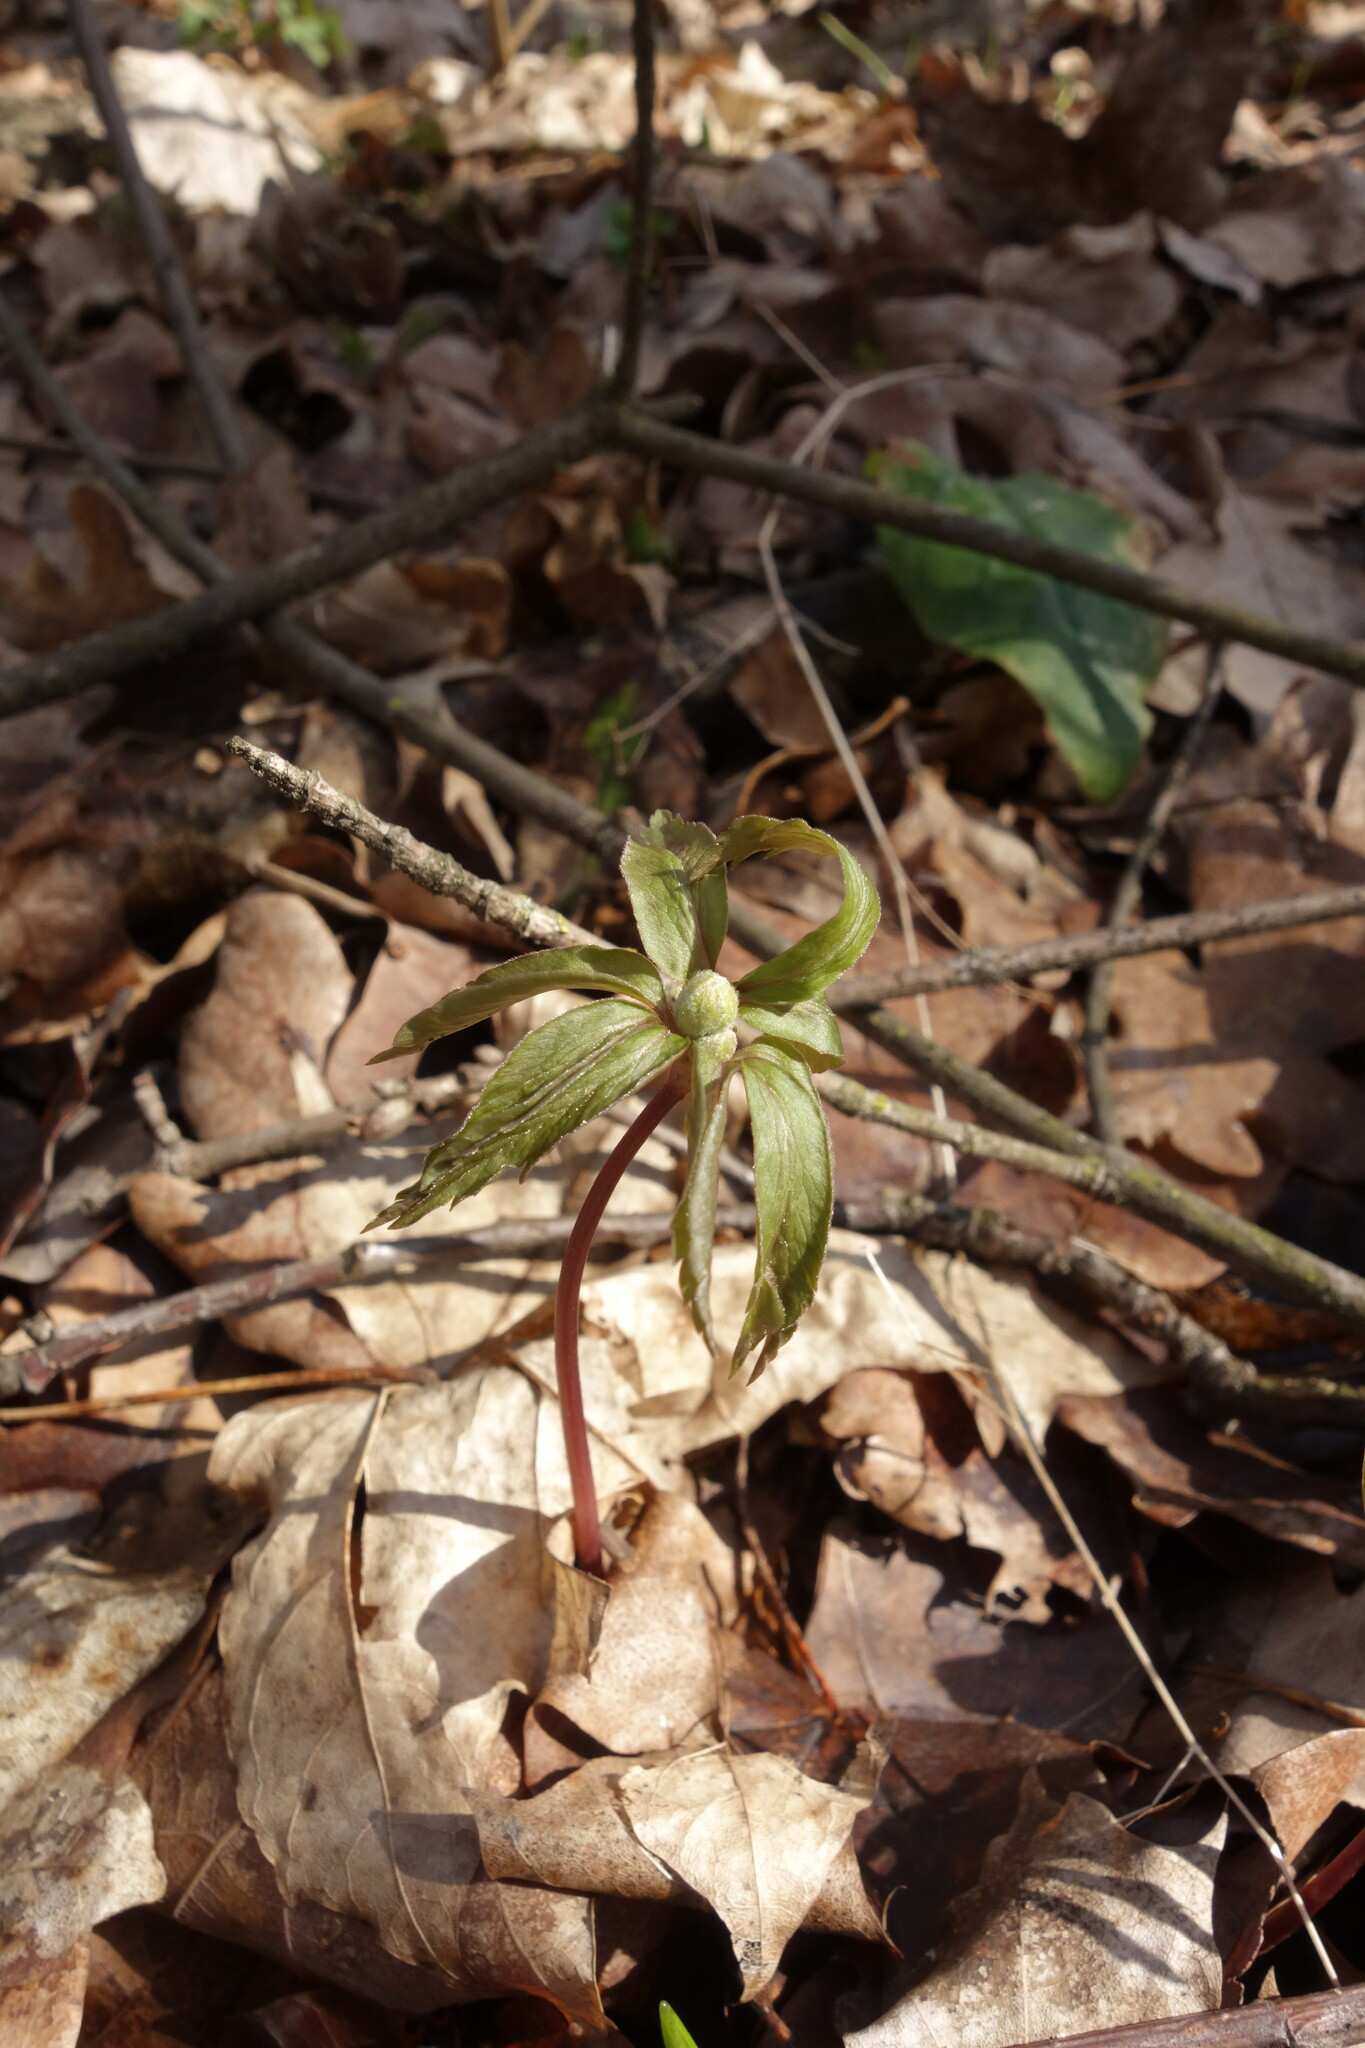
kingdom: Plantae
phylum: Tracheophyta
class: Magnoliopsida
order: Ranunculales
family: Ranunculaceae
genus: Anemone
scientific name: Anemone ranunculoides
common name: Yellow anemone
